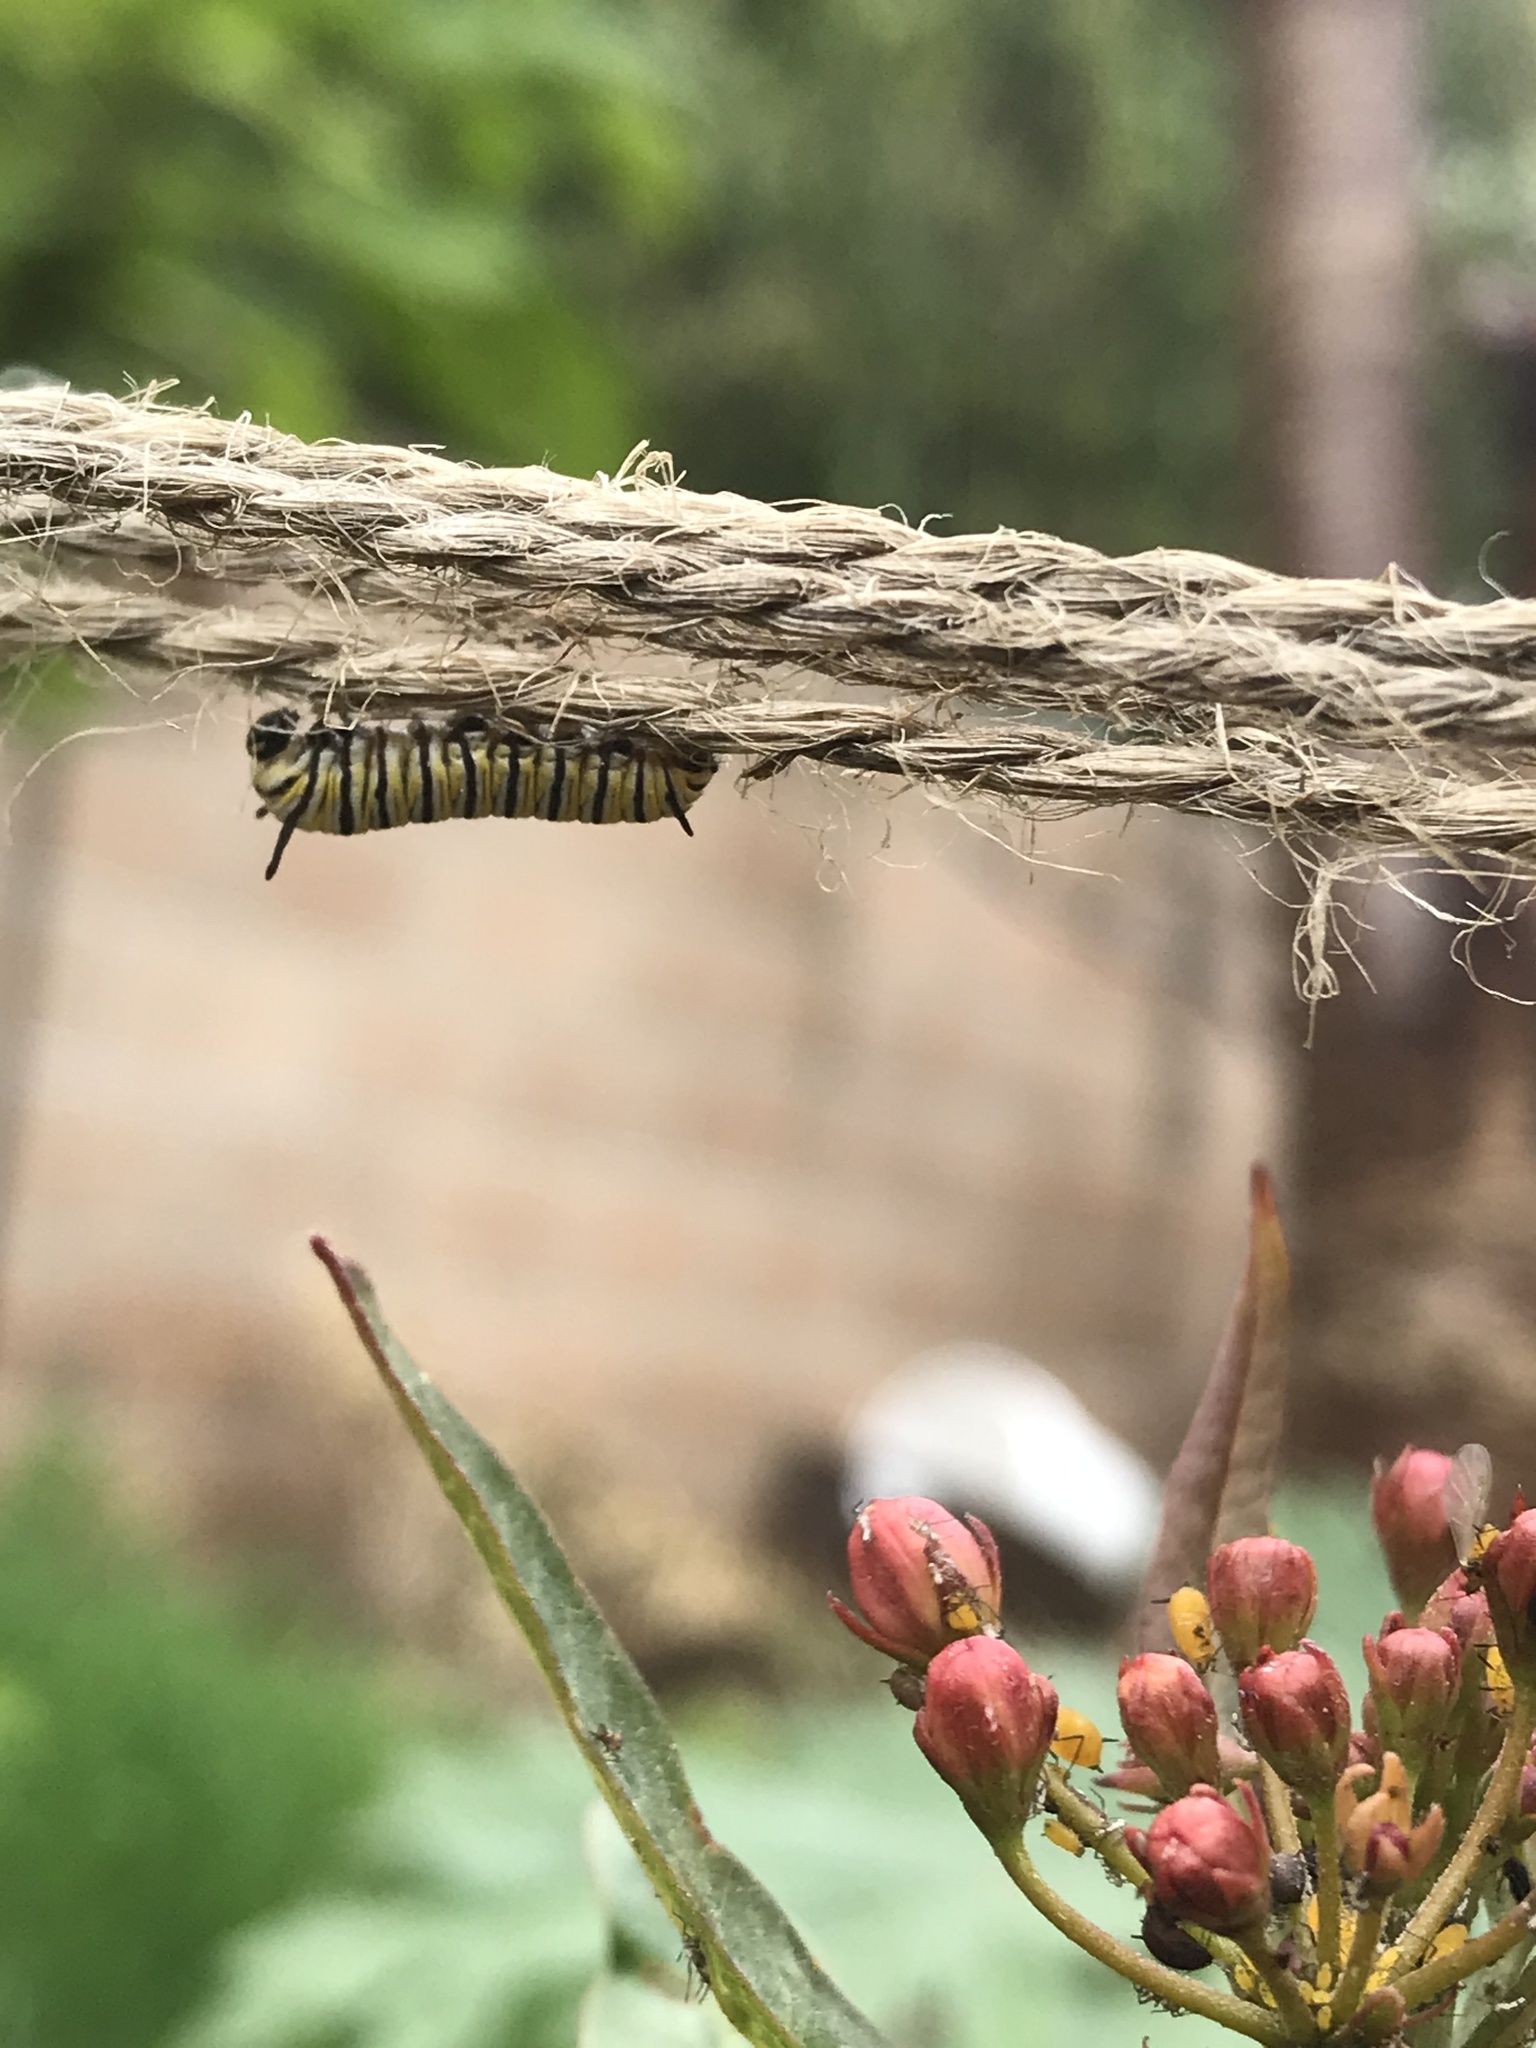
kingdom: Animalia
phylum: Arthropoda
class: Insecta
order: Lepidoptera
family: Nymphalidae
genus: Danaus
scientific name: Danaus plexippus
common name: Monarch
